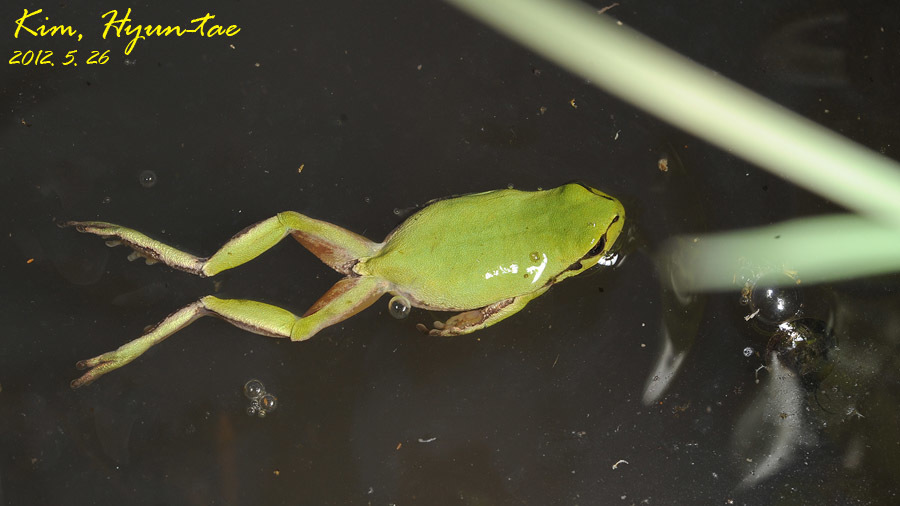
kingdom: Animalia
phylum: Chordata
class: Amphibia
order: Anura
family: Hylidae
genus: Dryophytes
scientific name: Dryophytes immaculatus
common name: North china treefrog
